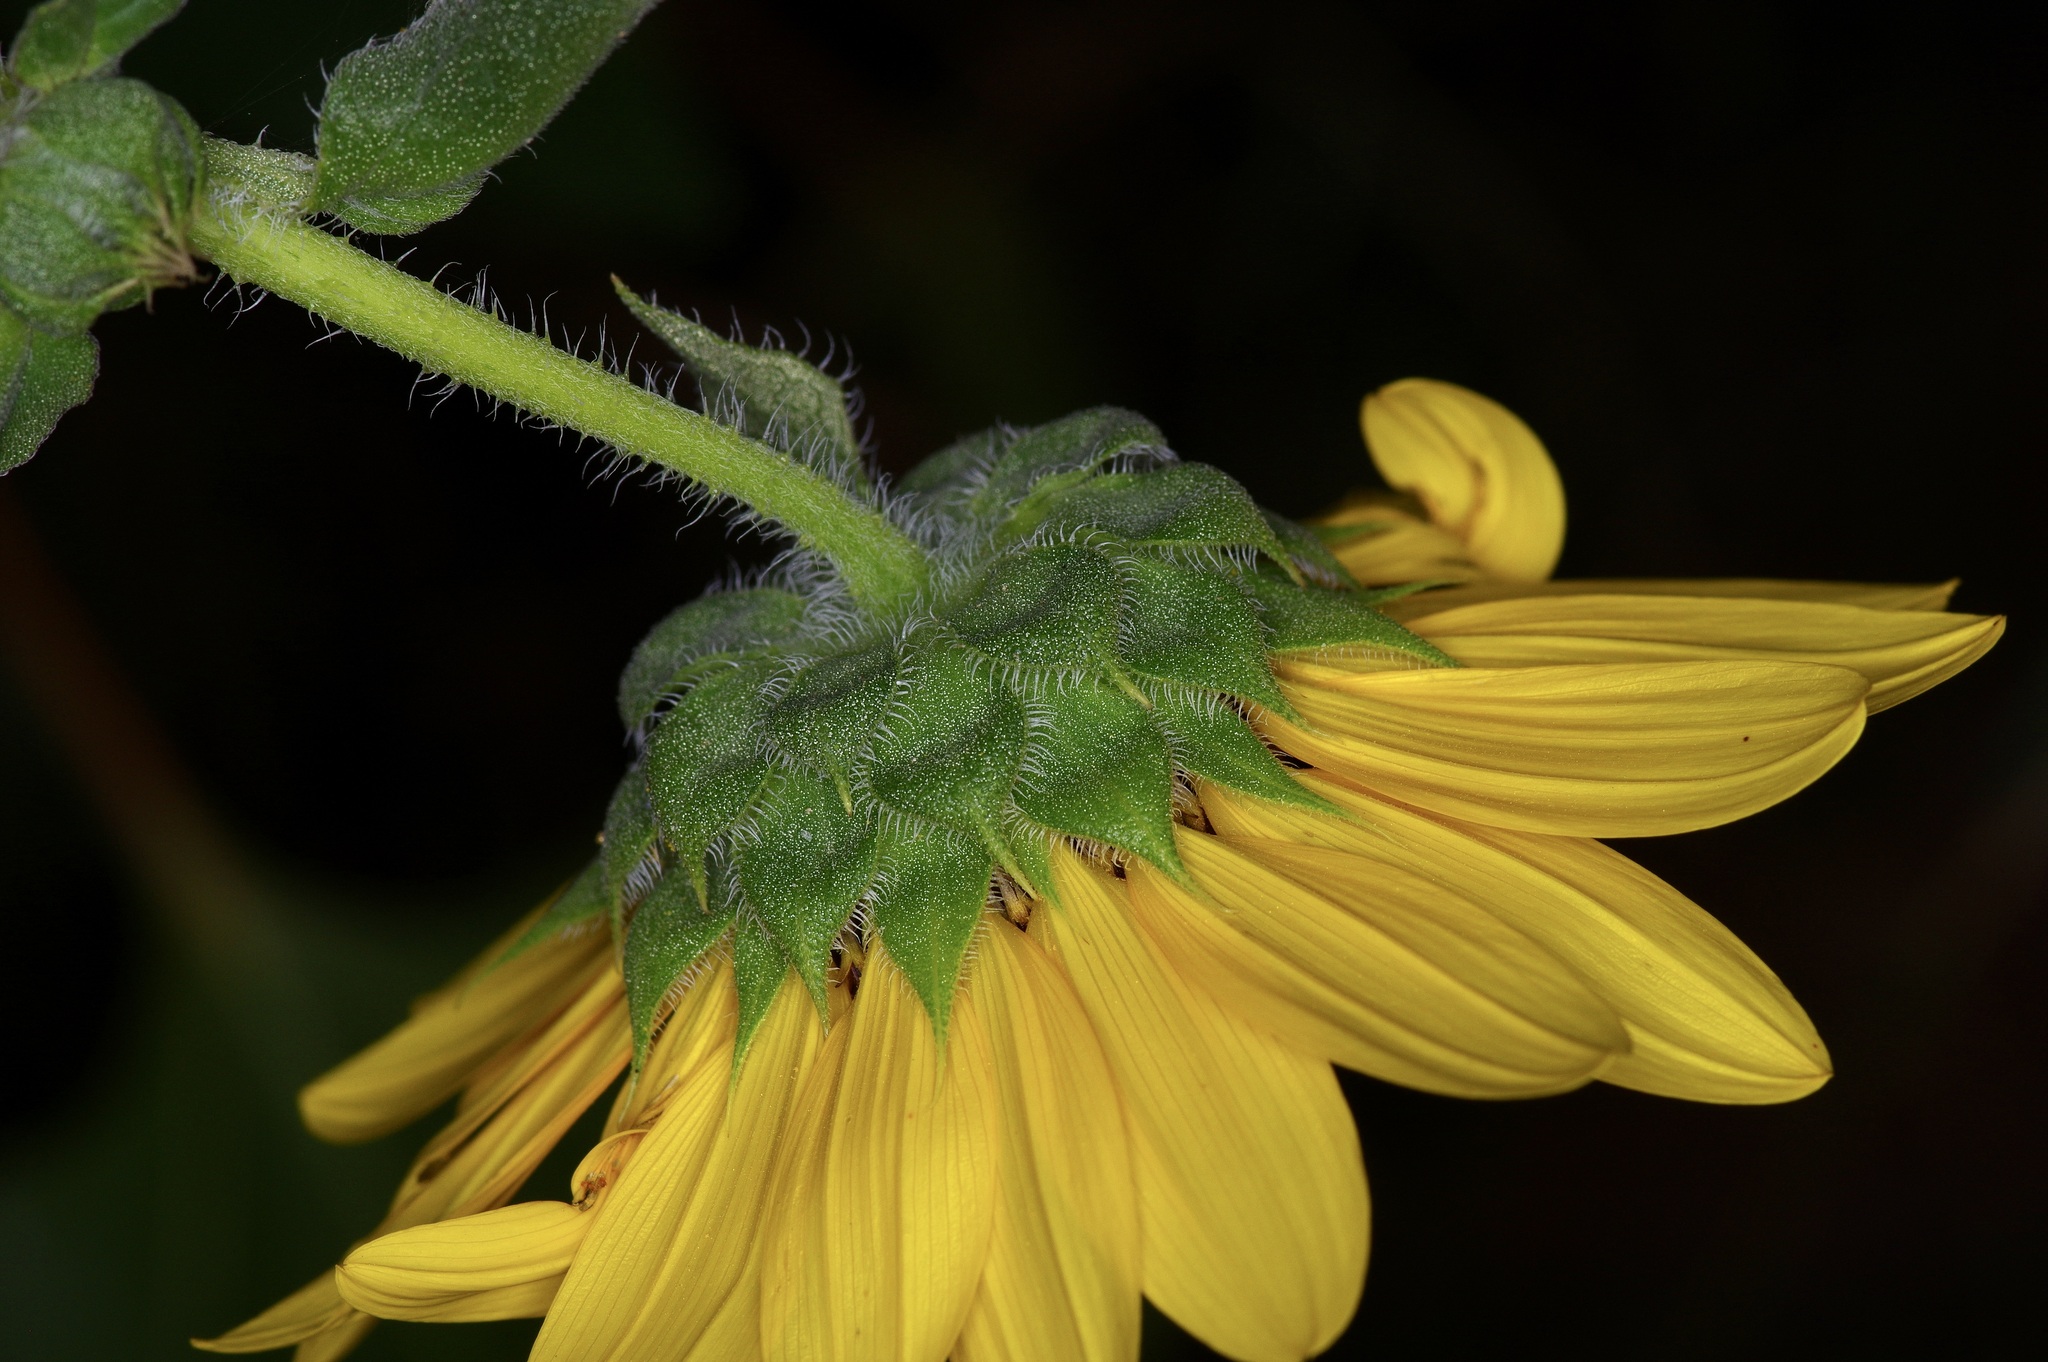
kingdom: Plantae
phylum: Tracheophyta
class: Magnoliopsida
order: Asterales
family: Asteraceae
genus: Helianthus
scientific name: Helianthus annuus
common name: Sunflower
